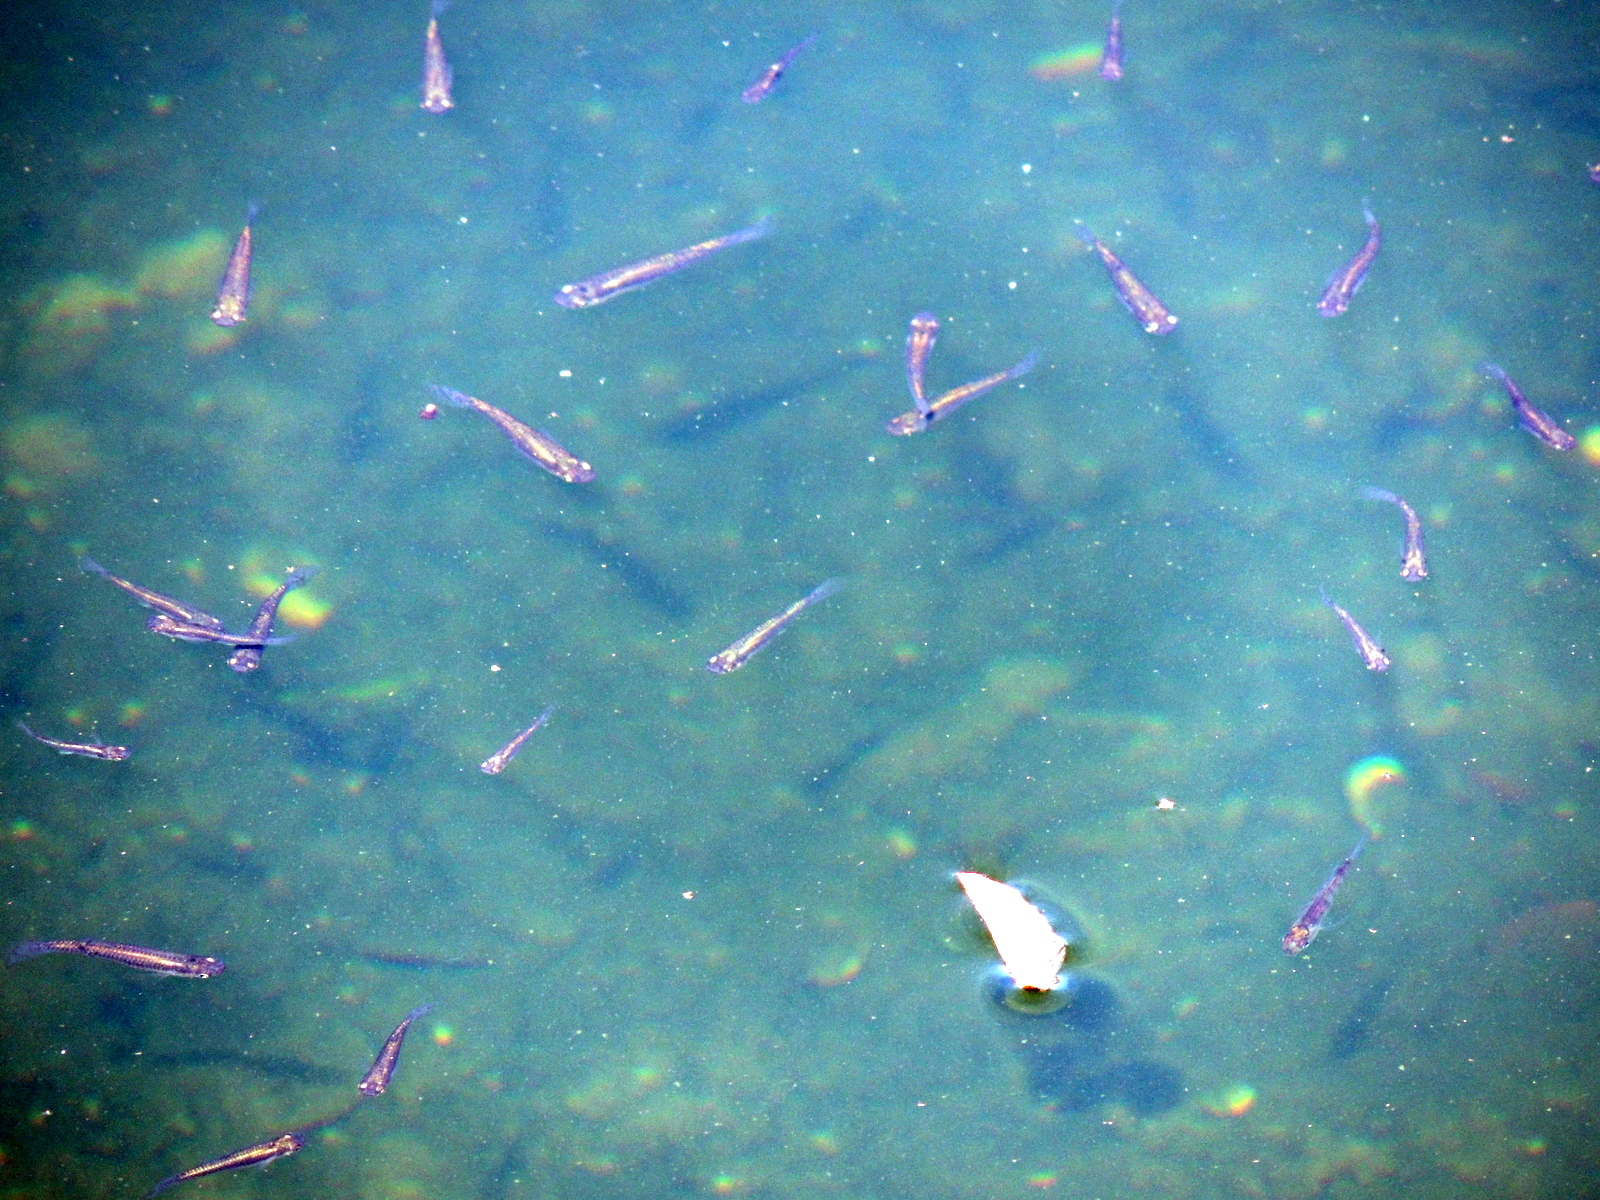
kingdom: Animalia
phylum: Chordata
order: Cyprinodontiformes
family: Poeciliidae
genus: Gambusia
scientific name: Gambusia holbrooki
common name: Eastern mosquitofish
